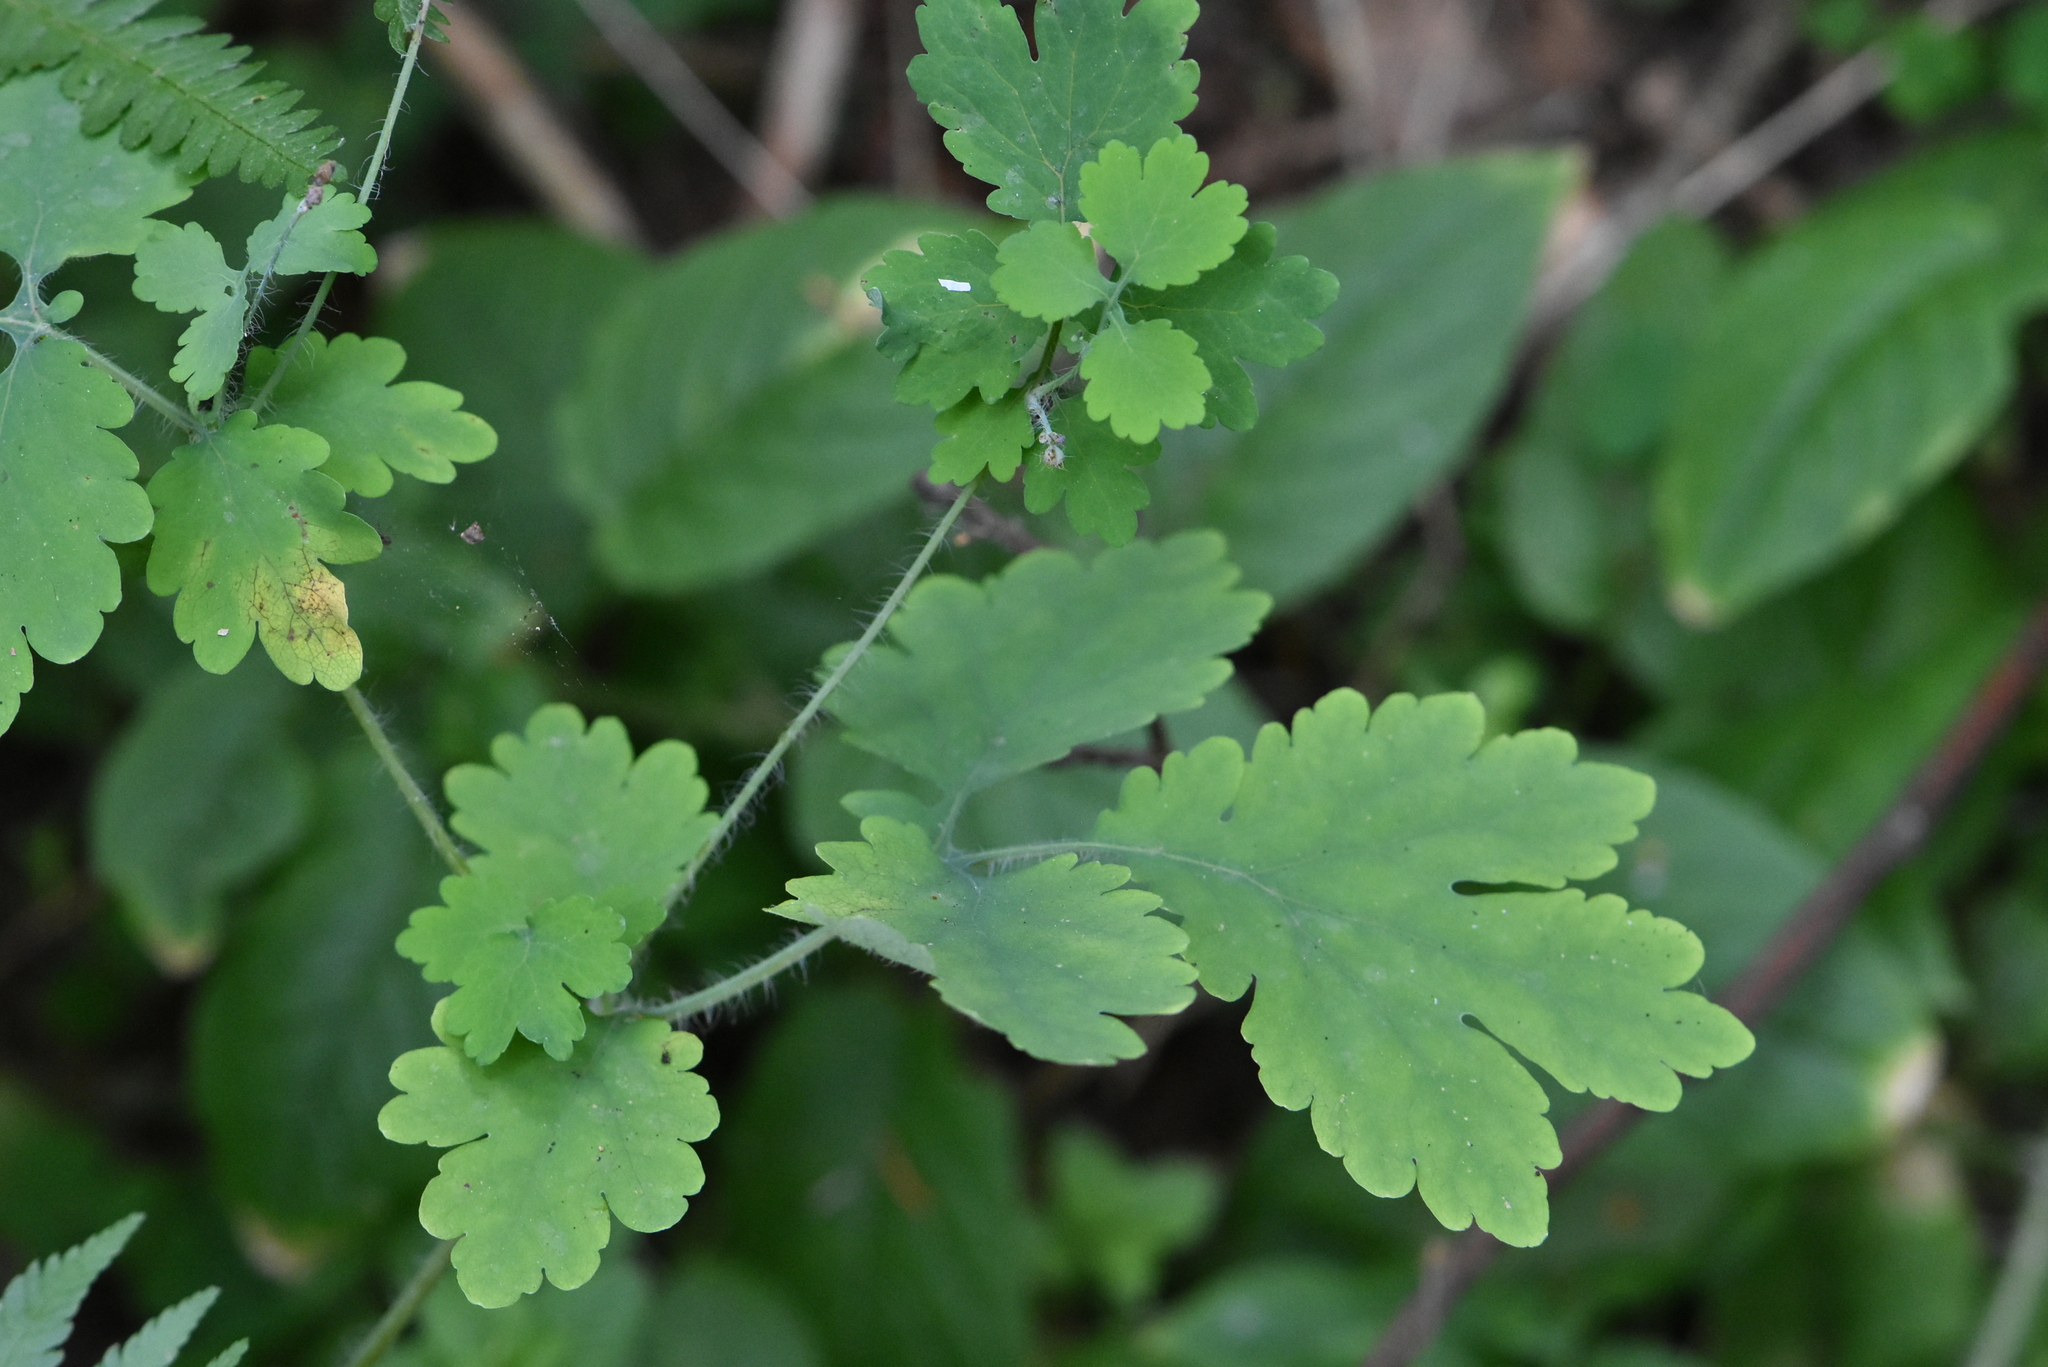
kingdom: Plantae
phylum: Tracheophyta
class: Magnoliopsida
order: Ranunculales
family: Papaveraceae
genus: Chelidonium
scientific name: Chelidonium majus
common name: Greater celandine
